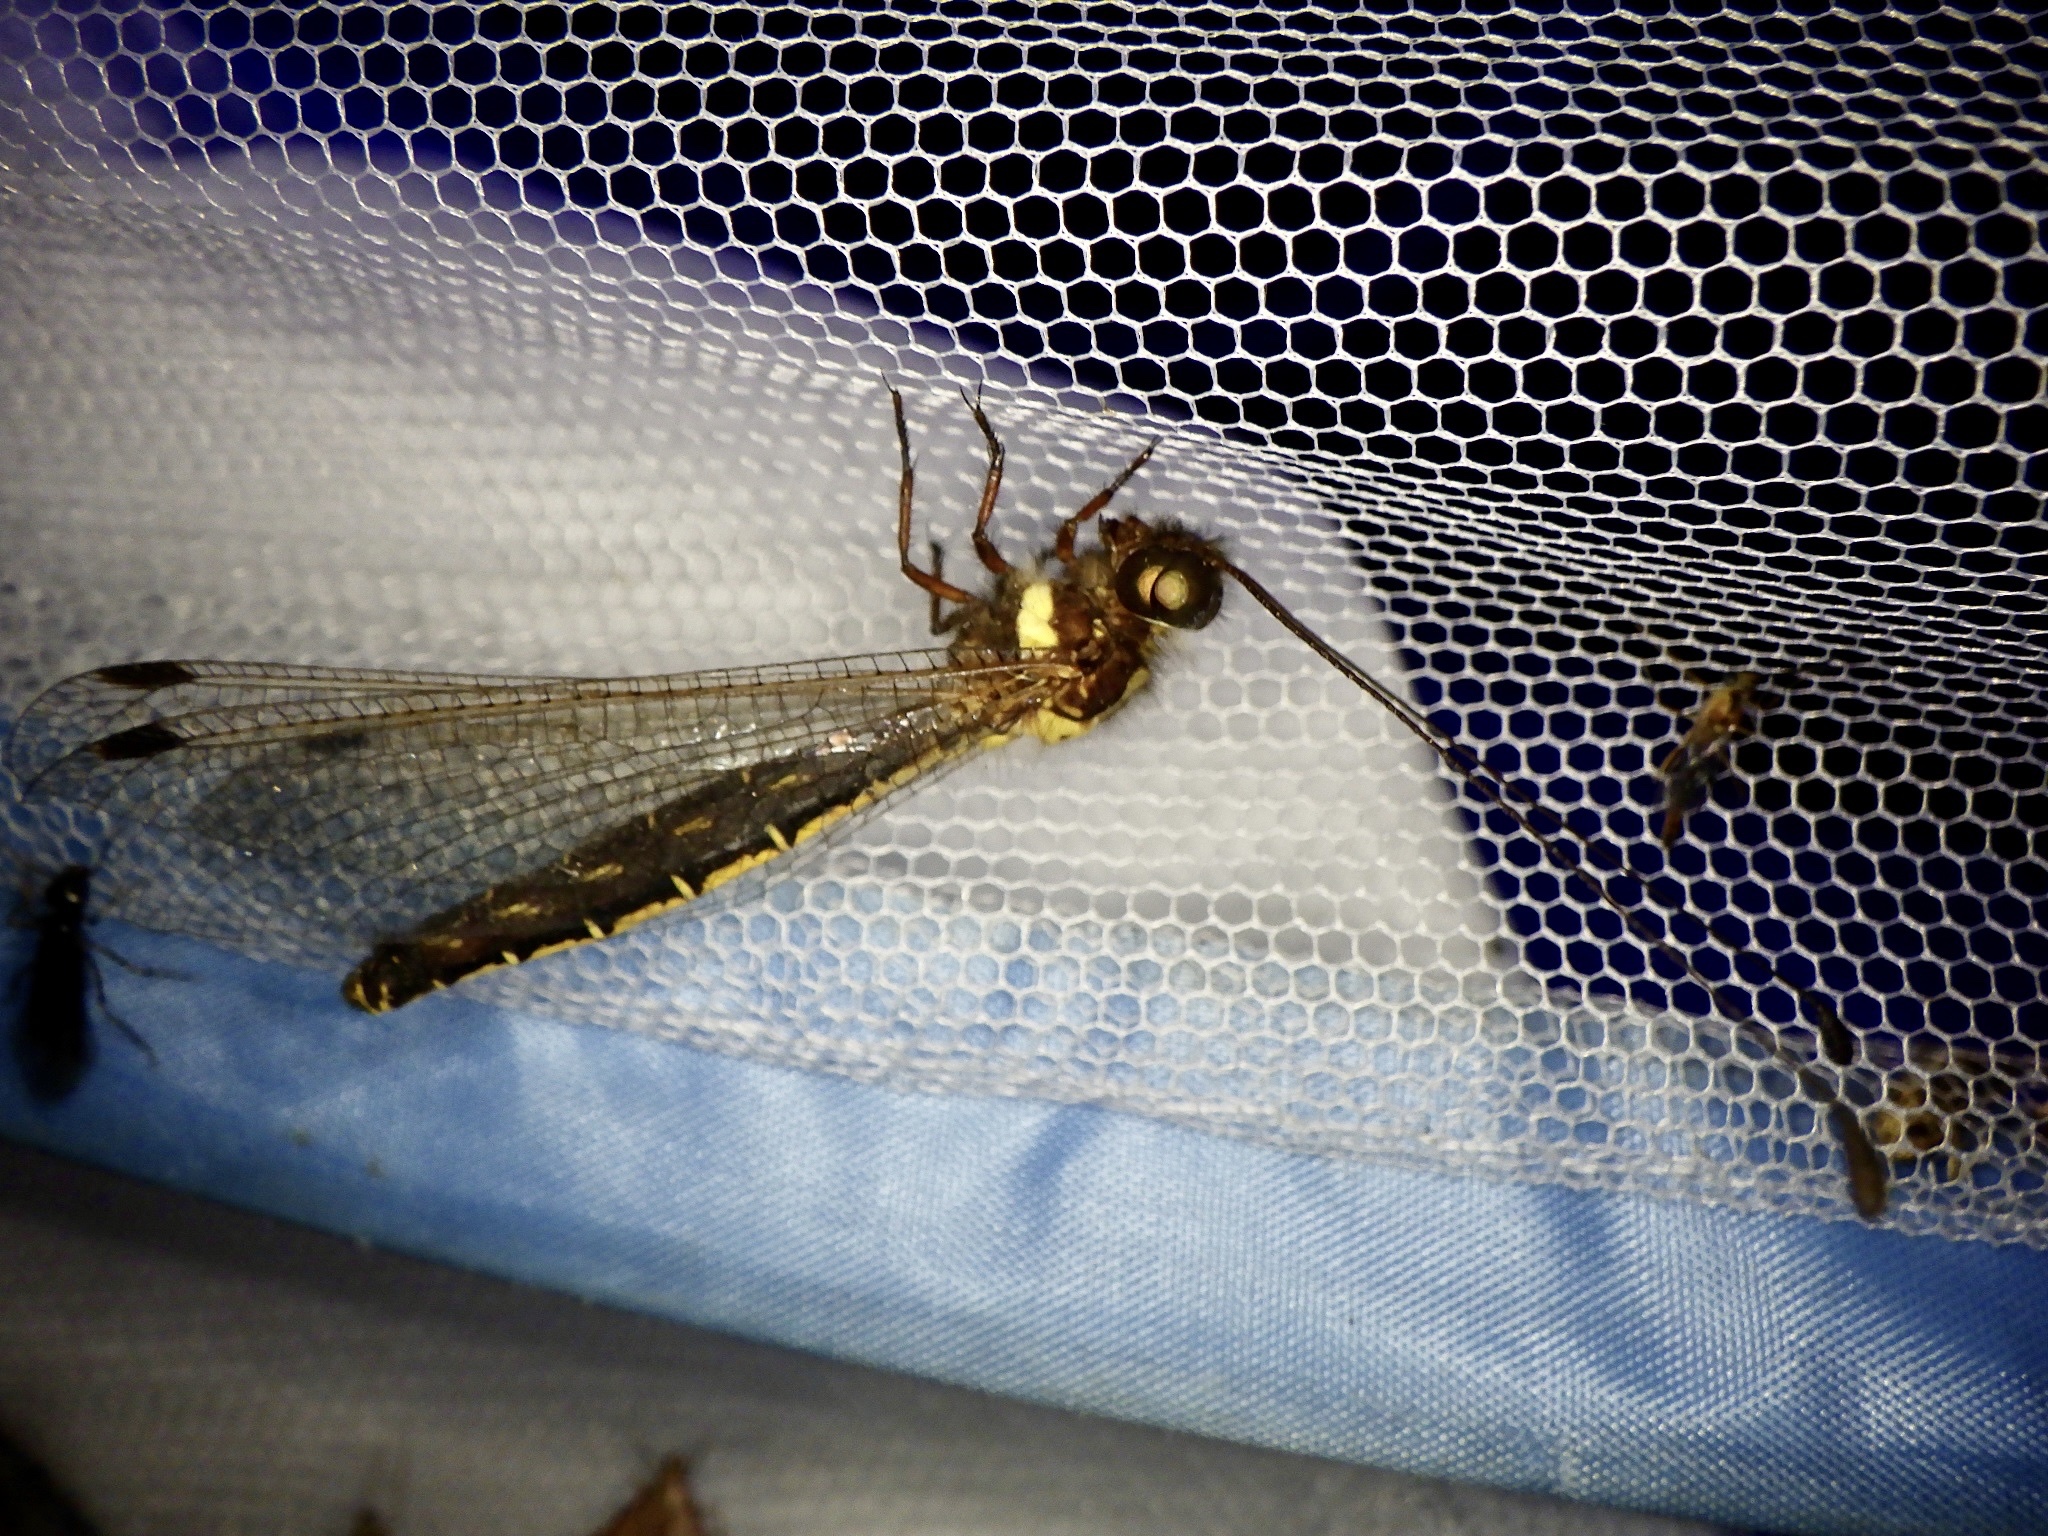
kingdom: Animalia
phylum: Arthropoda
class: Insecta
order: Neuroptera
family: Ascalaphidae
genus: Ascalohybris
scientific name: Ascalohybris subjacens
